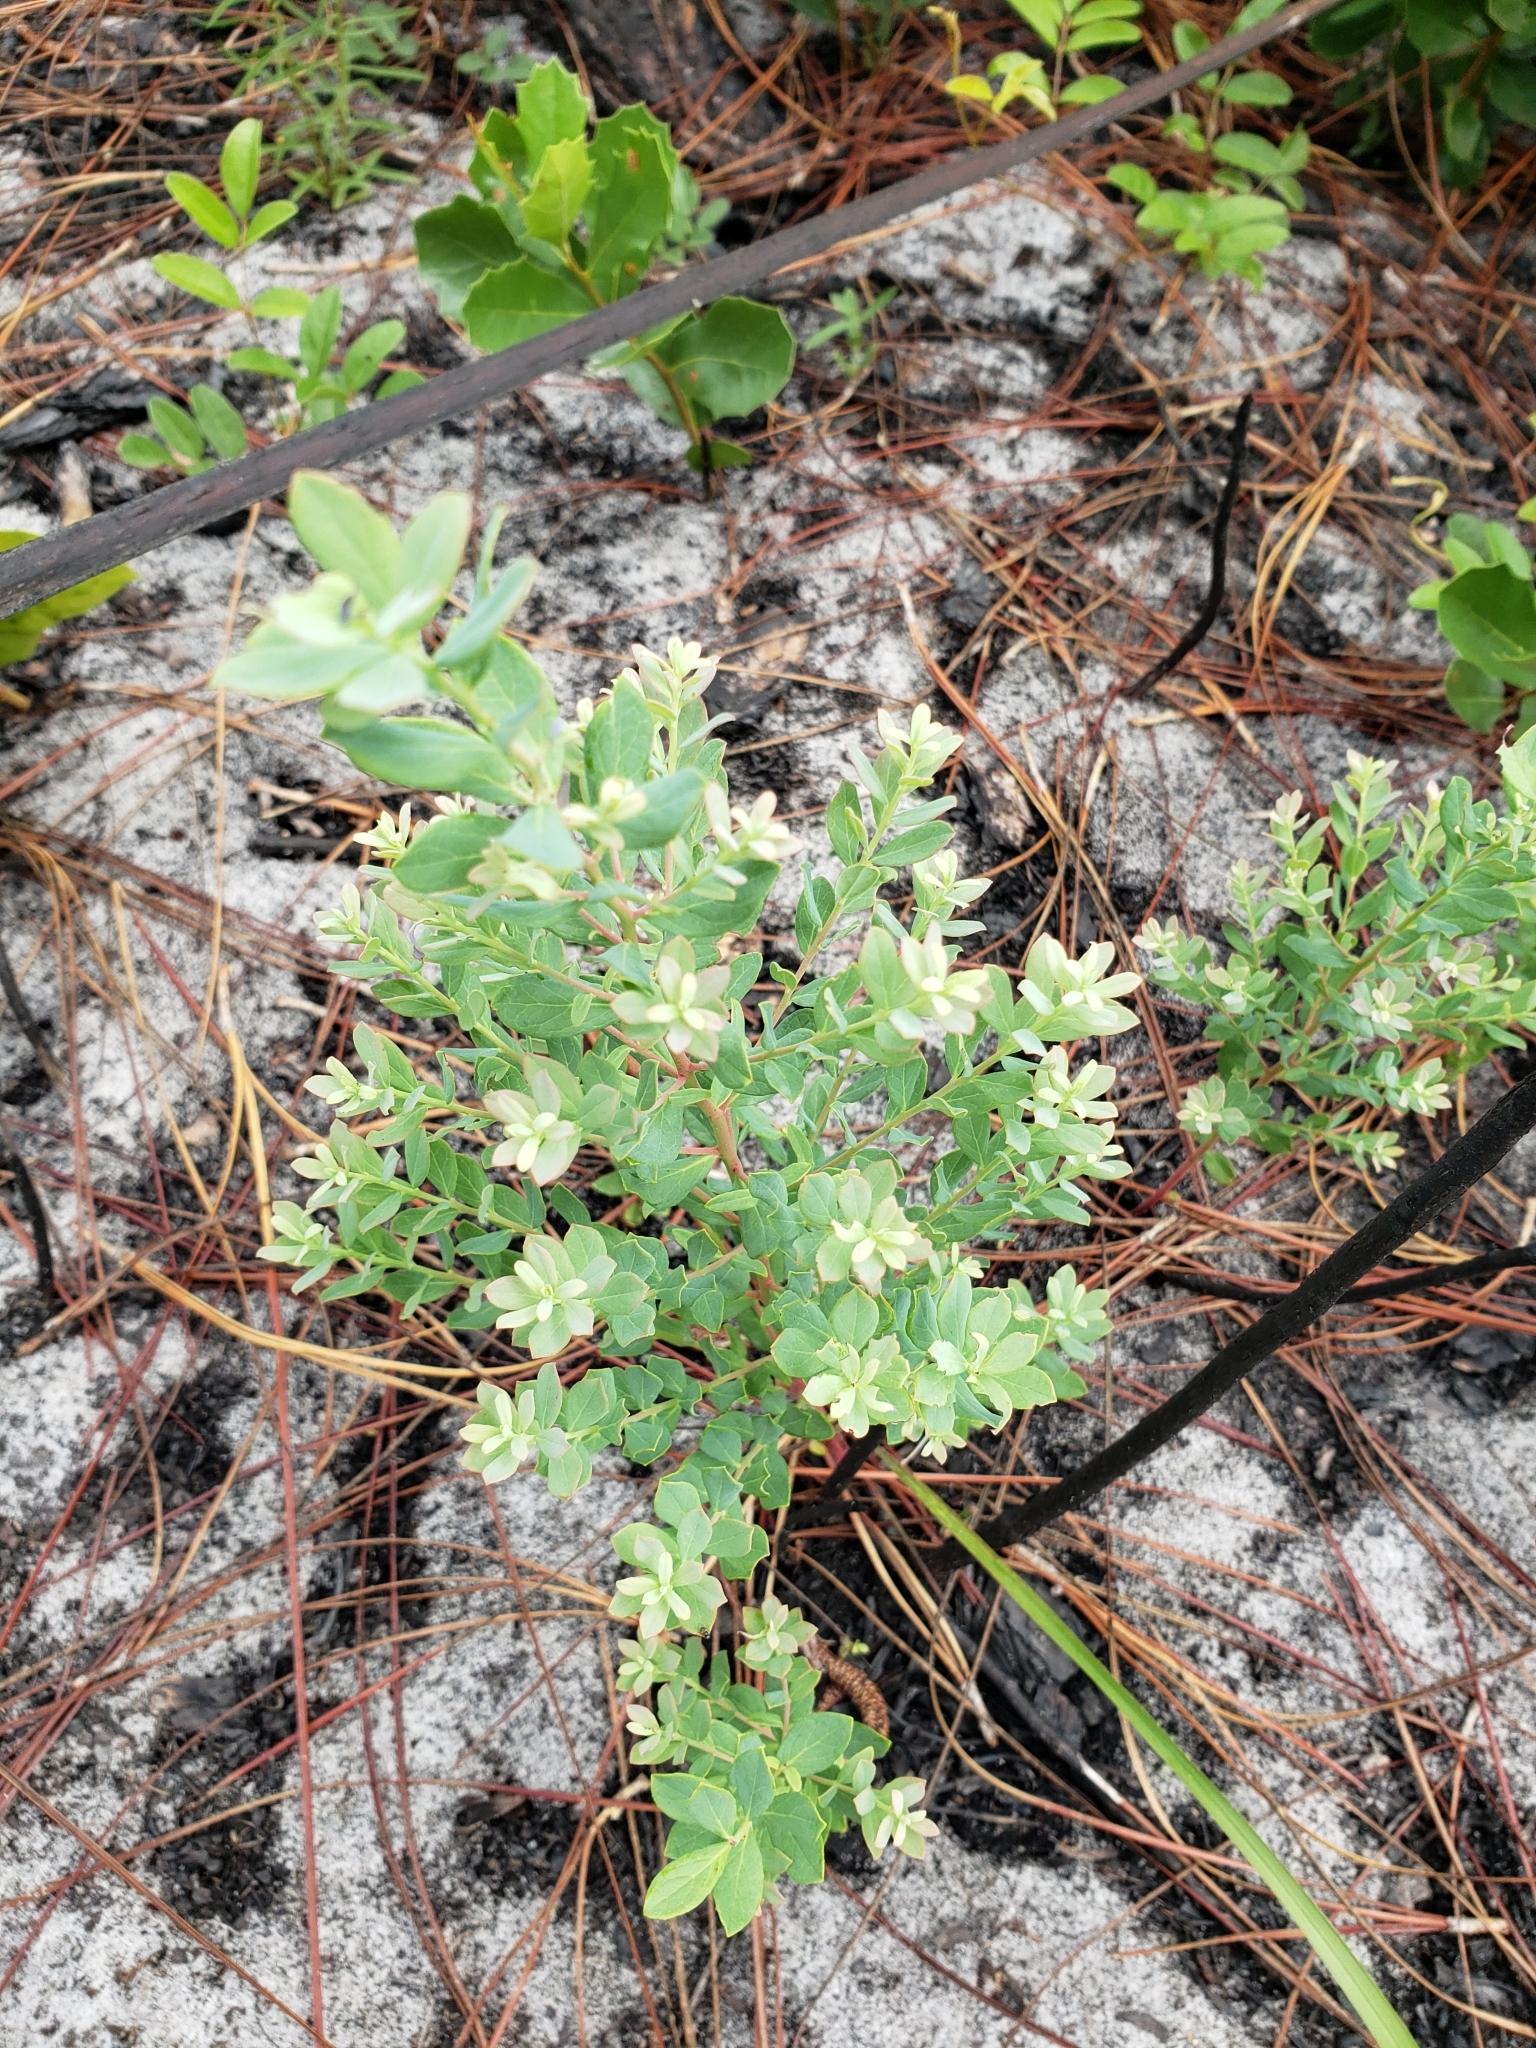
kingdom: Plantae
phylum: Tracheophyta
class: Magnoliopsida
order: Ericales
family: Ericaceae
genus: Vaccinium
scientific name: Vaccinium darrowii
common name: Darrow's blueberry
